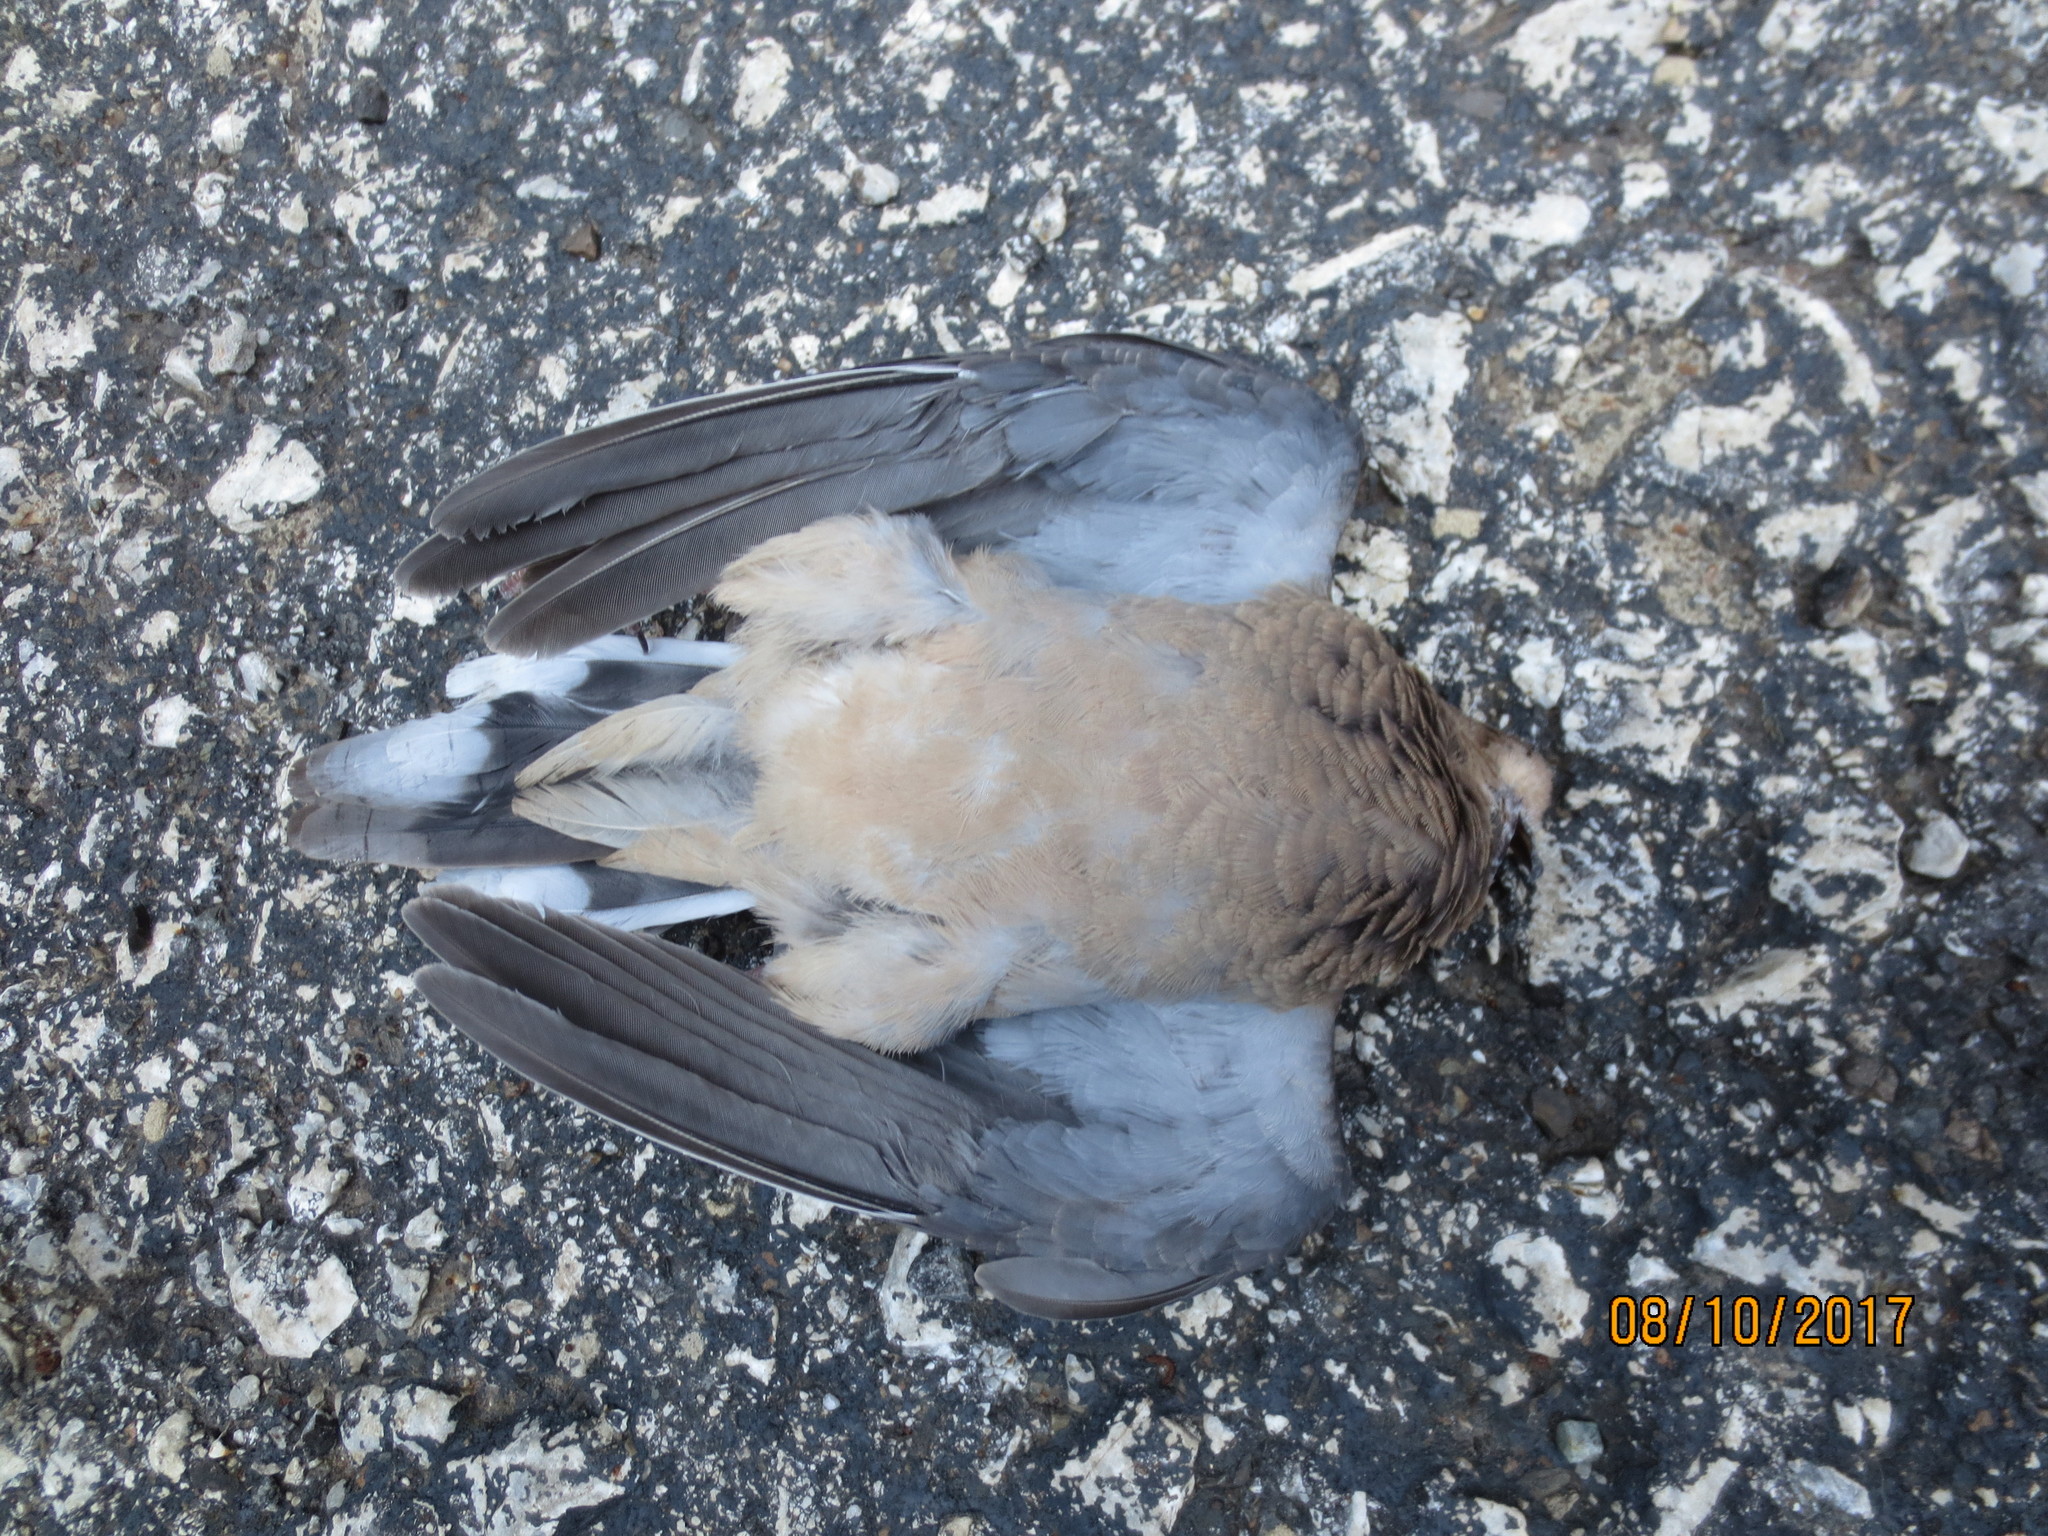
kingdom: Animalia
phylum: Chordata
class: Aves
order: Columbiformes
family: Columbidae
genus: Zenaida
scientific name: Zenaida macroura
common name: Mourning dove
